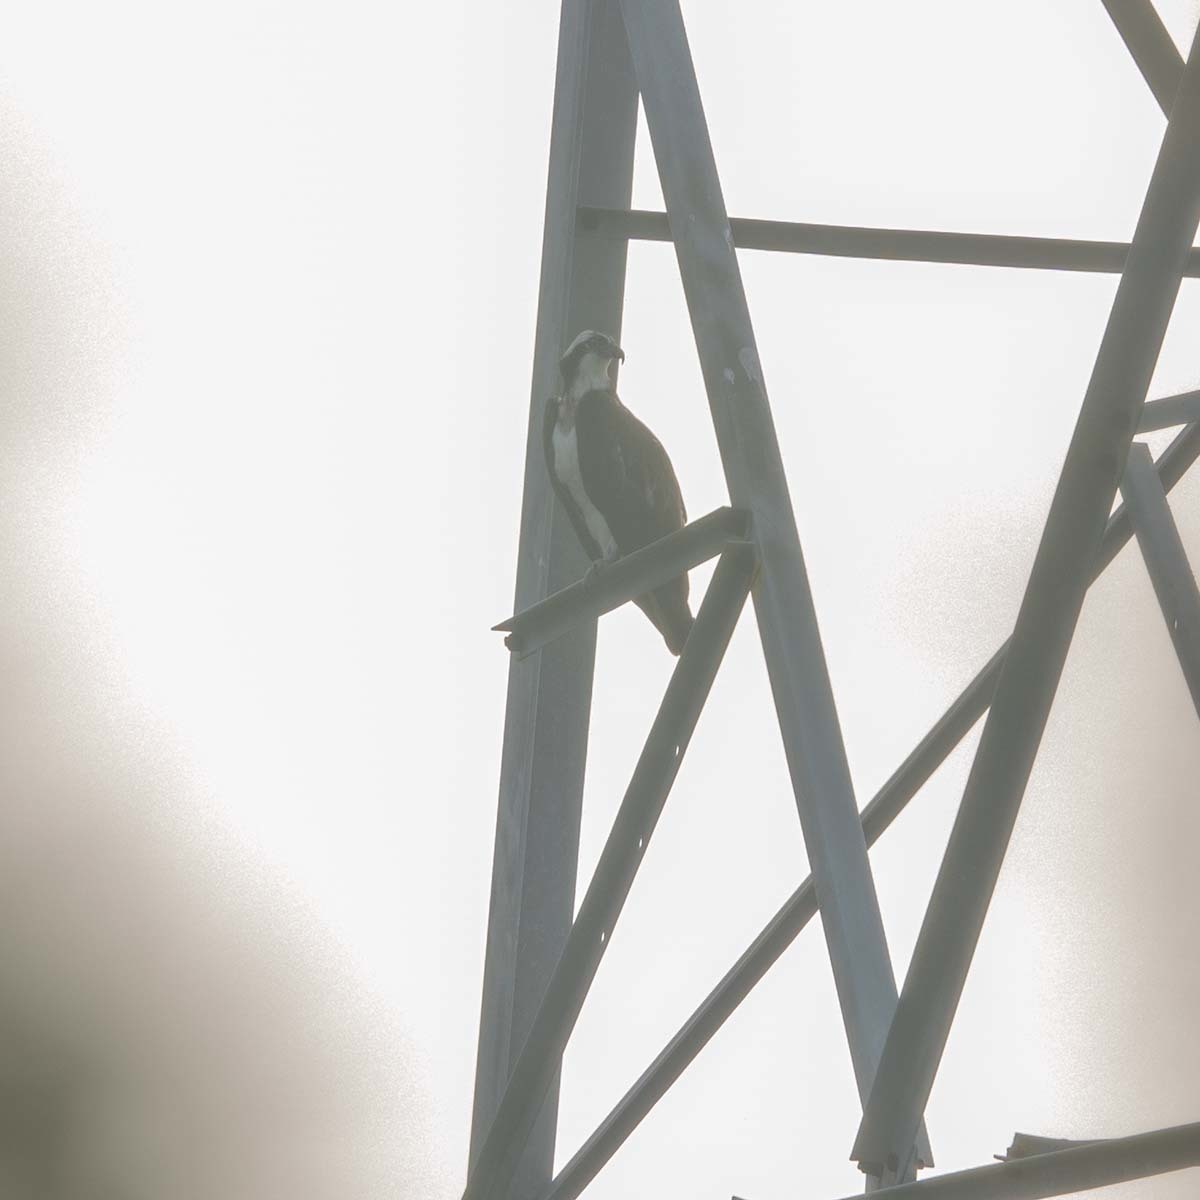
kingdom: Animalia
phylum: Chordata
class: Aves
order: Accipitriformes
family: Pandionidae
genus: Pandion
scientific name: Pandion haliaetus
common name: Osprey
